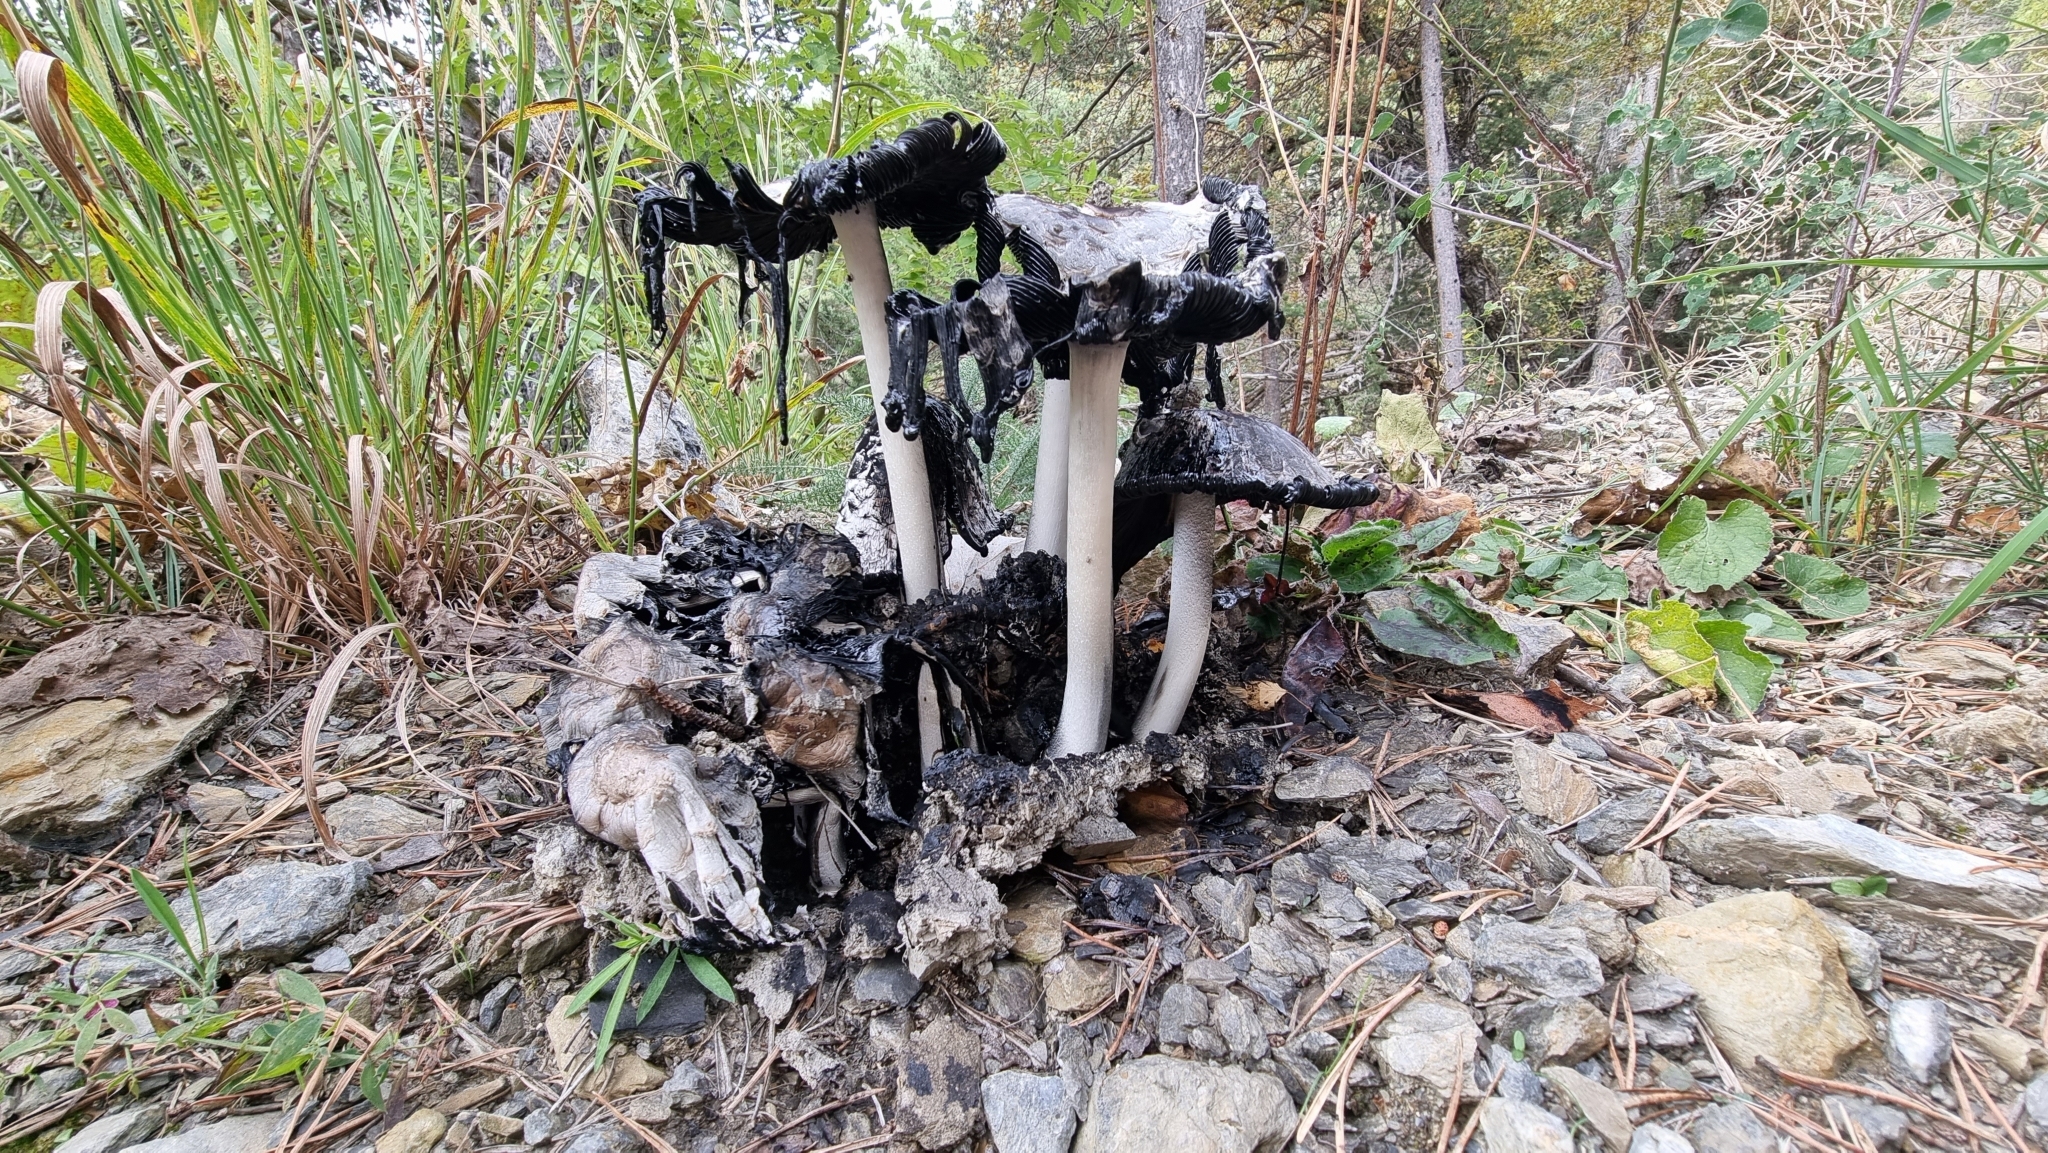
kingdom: Fungi
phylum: Basidiomycota
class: Agaricomycetes
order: Agaricales
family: Agaricaceae
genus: Coprinus
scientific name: Coprinus comatus
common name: Lawyer's wig
